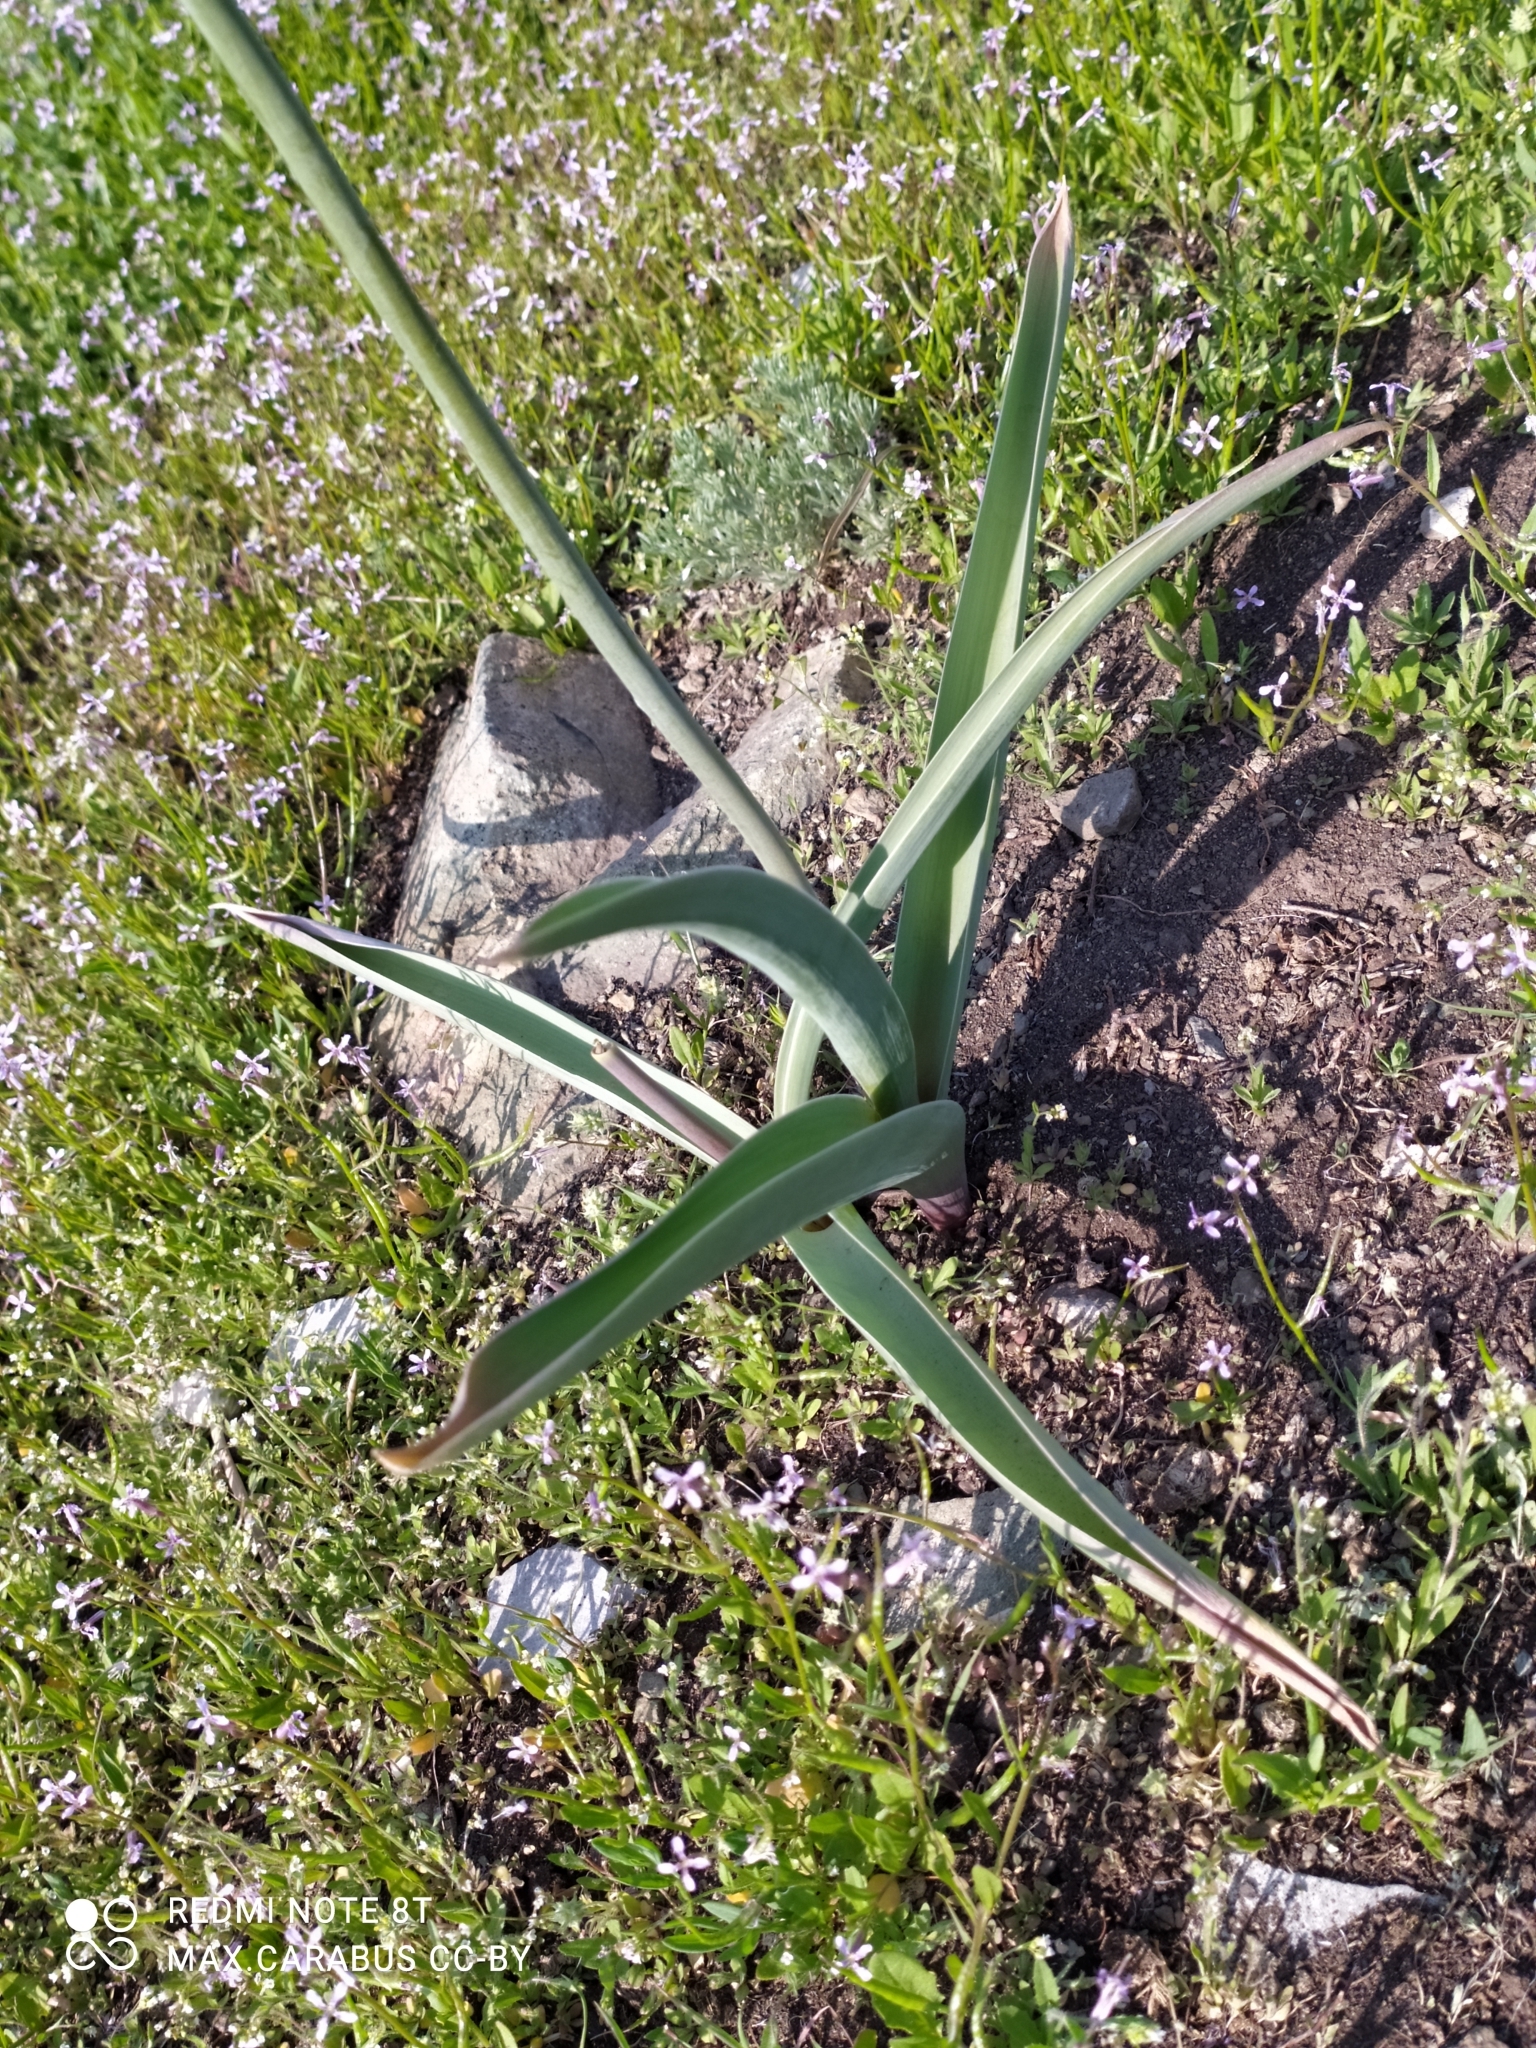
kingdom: Plantae
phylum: Tracheophyta
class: Liliopsida
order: Asparagales
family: Amaryllidaceae
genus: Allium
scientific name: Allium tulipifolium
